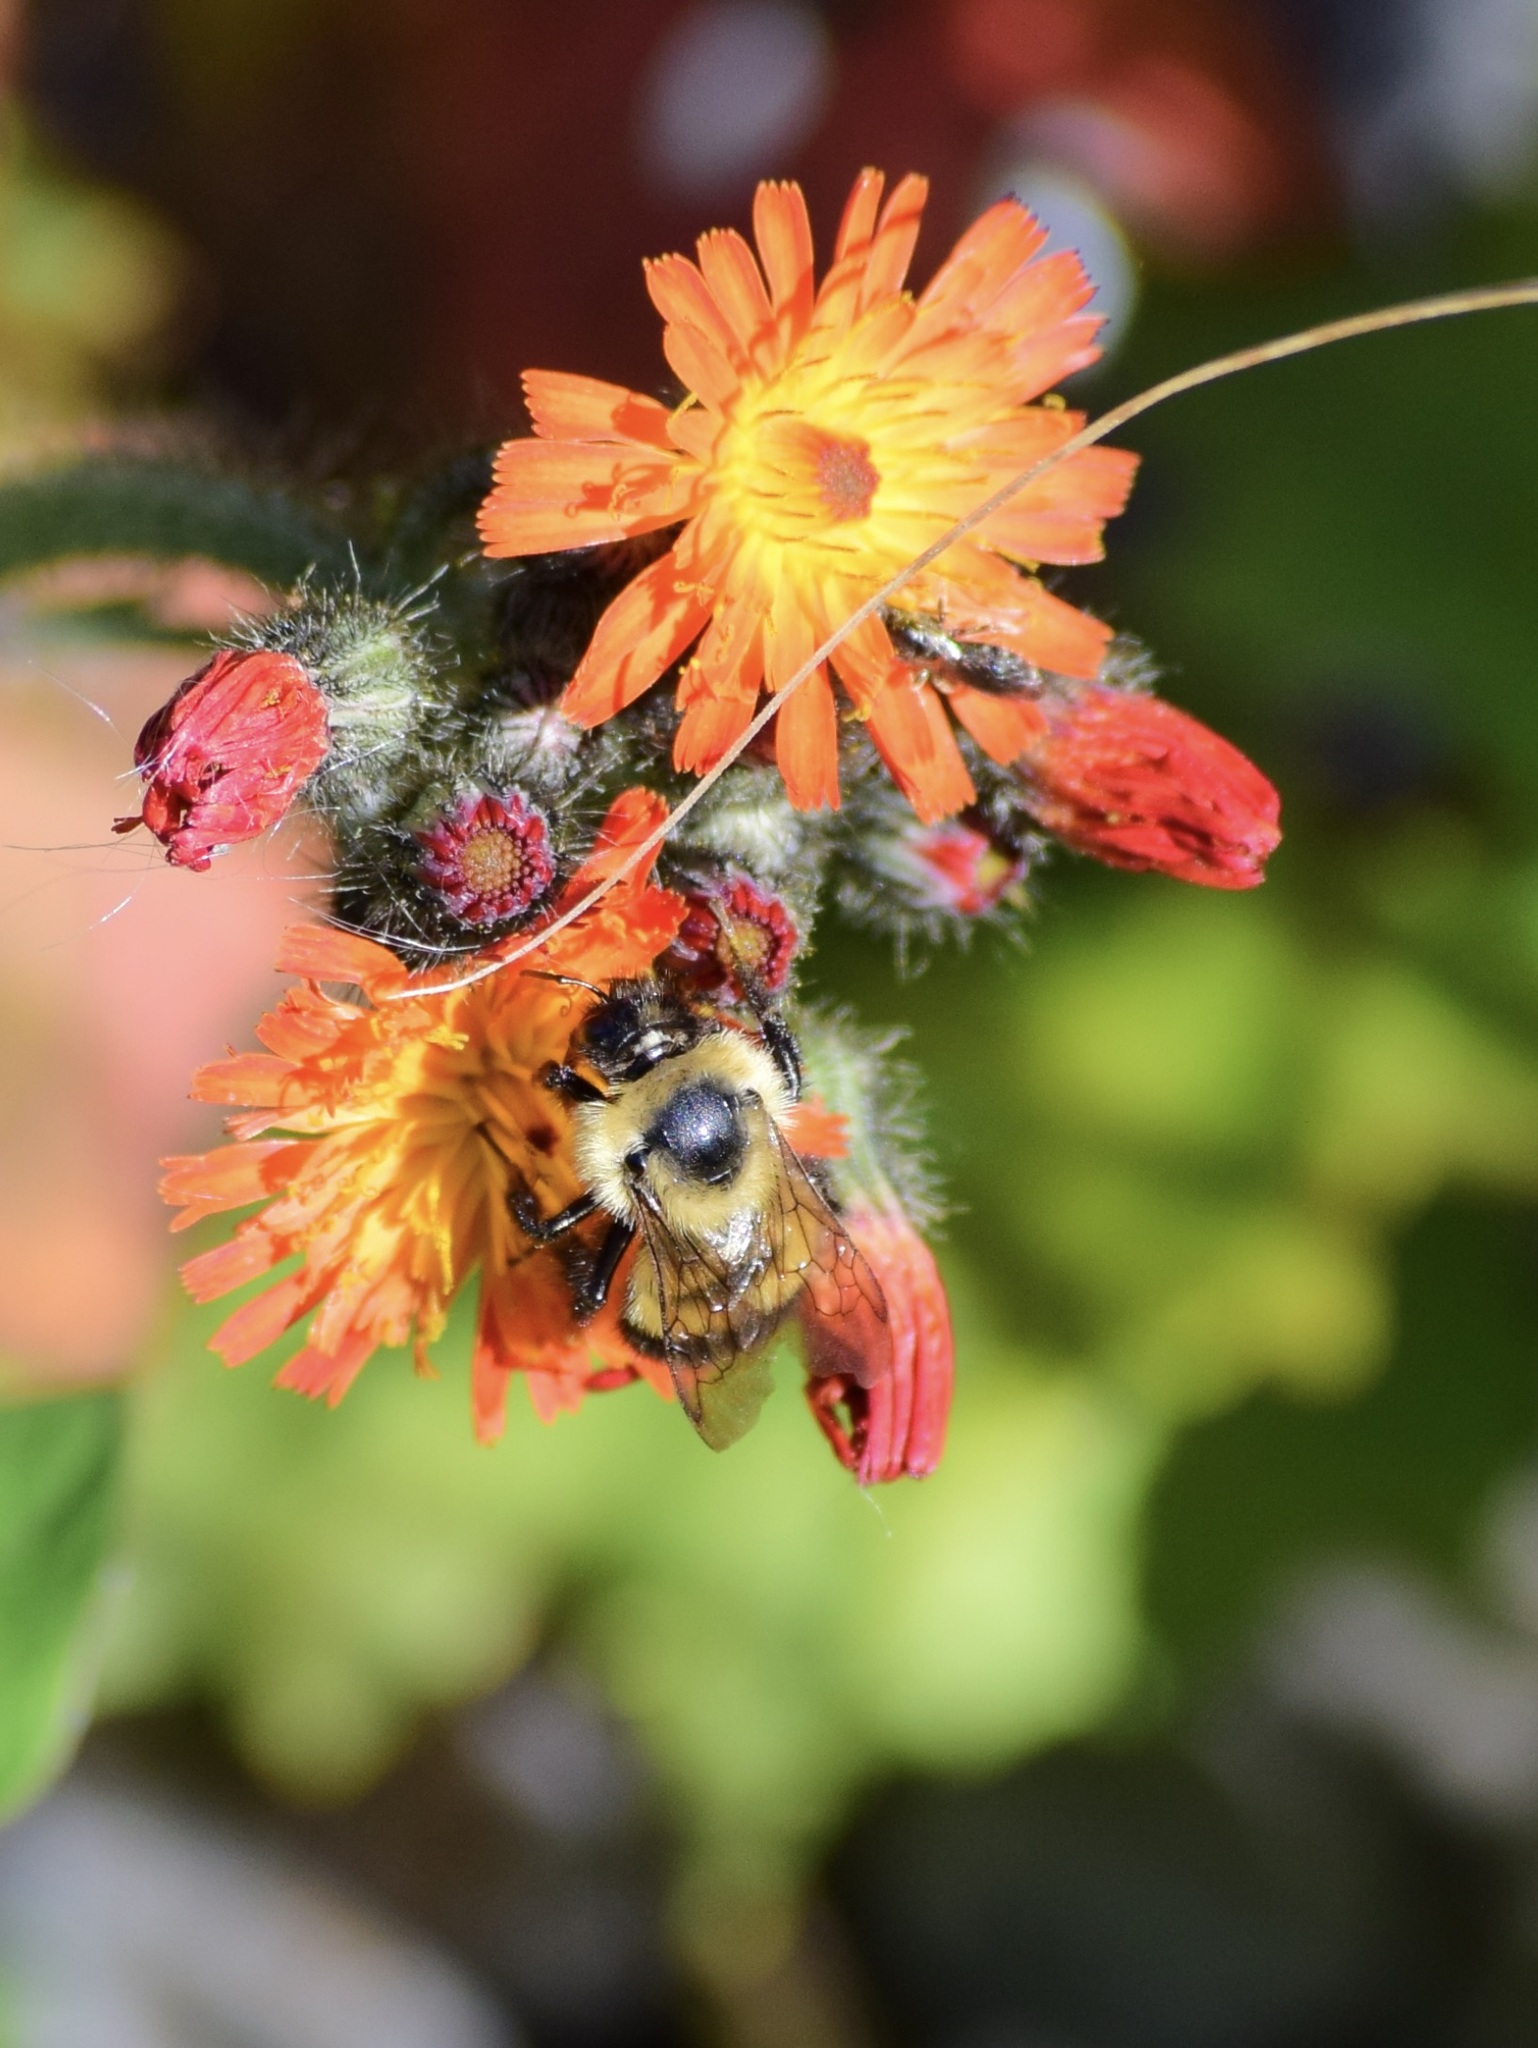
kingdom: Animalia
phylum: Arthropoda
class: Insecta
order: Hymenoptera
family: Apidae
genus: Pyrobombus
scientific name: Pyrobombus
